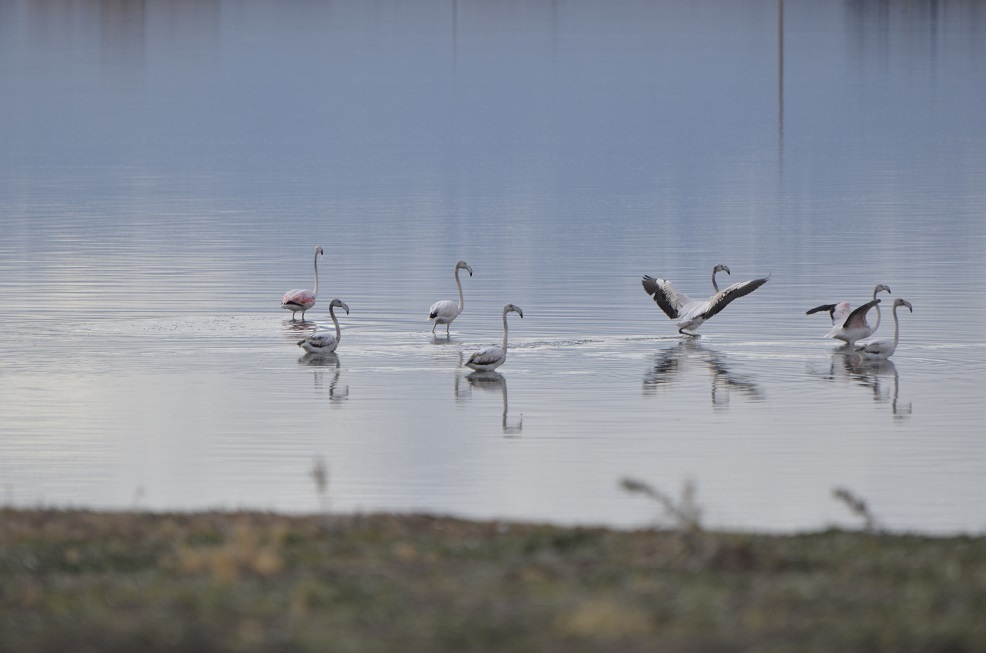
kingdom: Animalia
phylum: Chordata
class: Aves
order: Phoenicopteriformes
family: Phoenicopteridae
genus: Phoenicopterus
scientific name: Phoenicopterus roseus
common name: Greater flamingo
